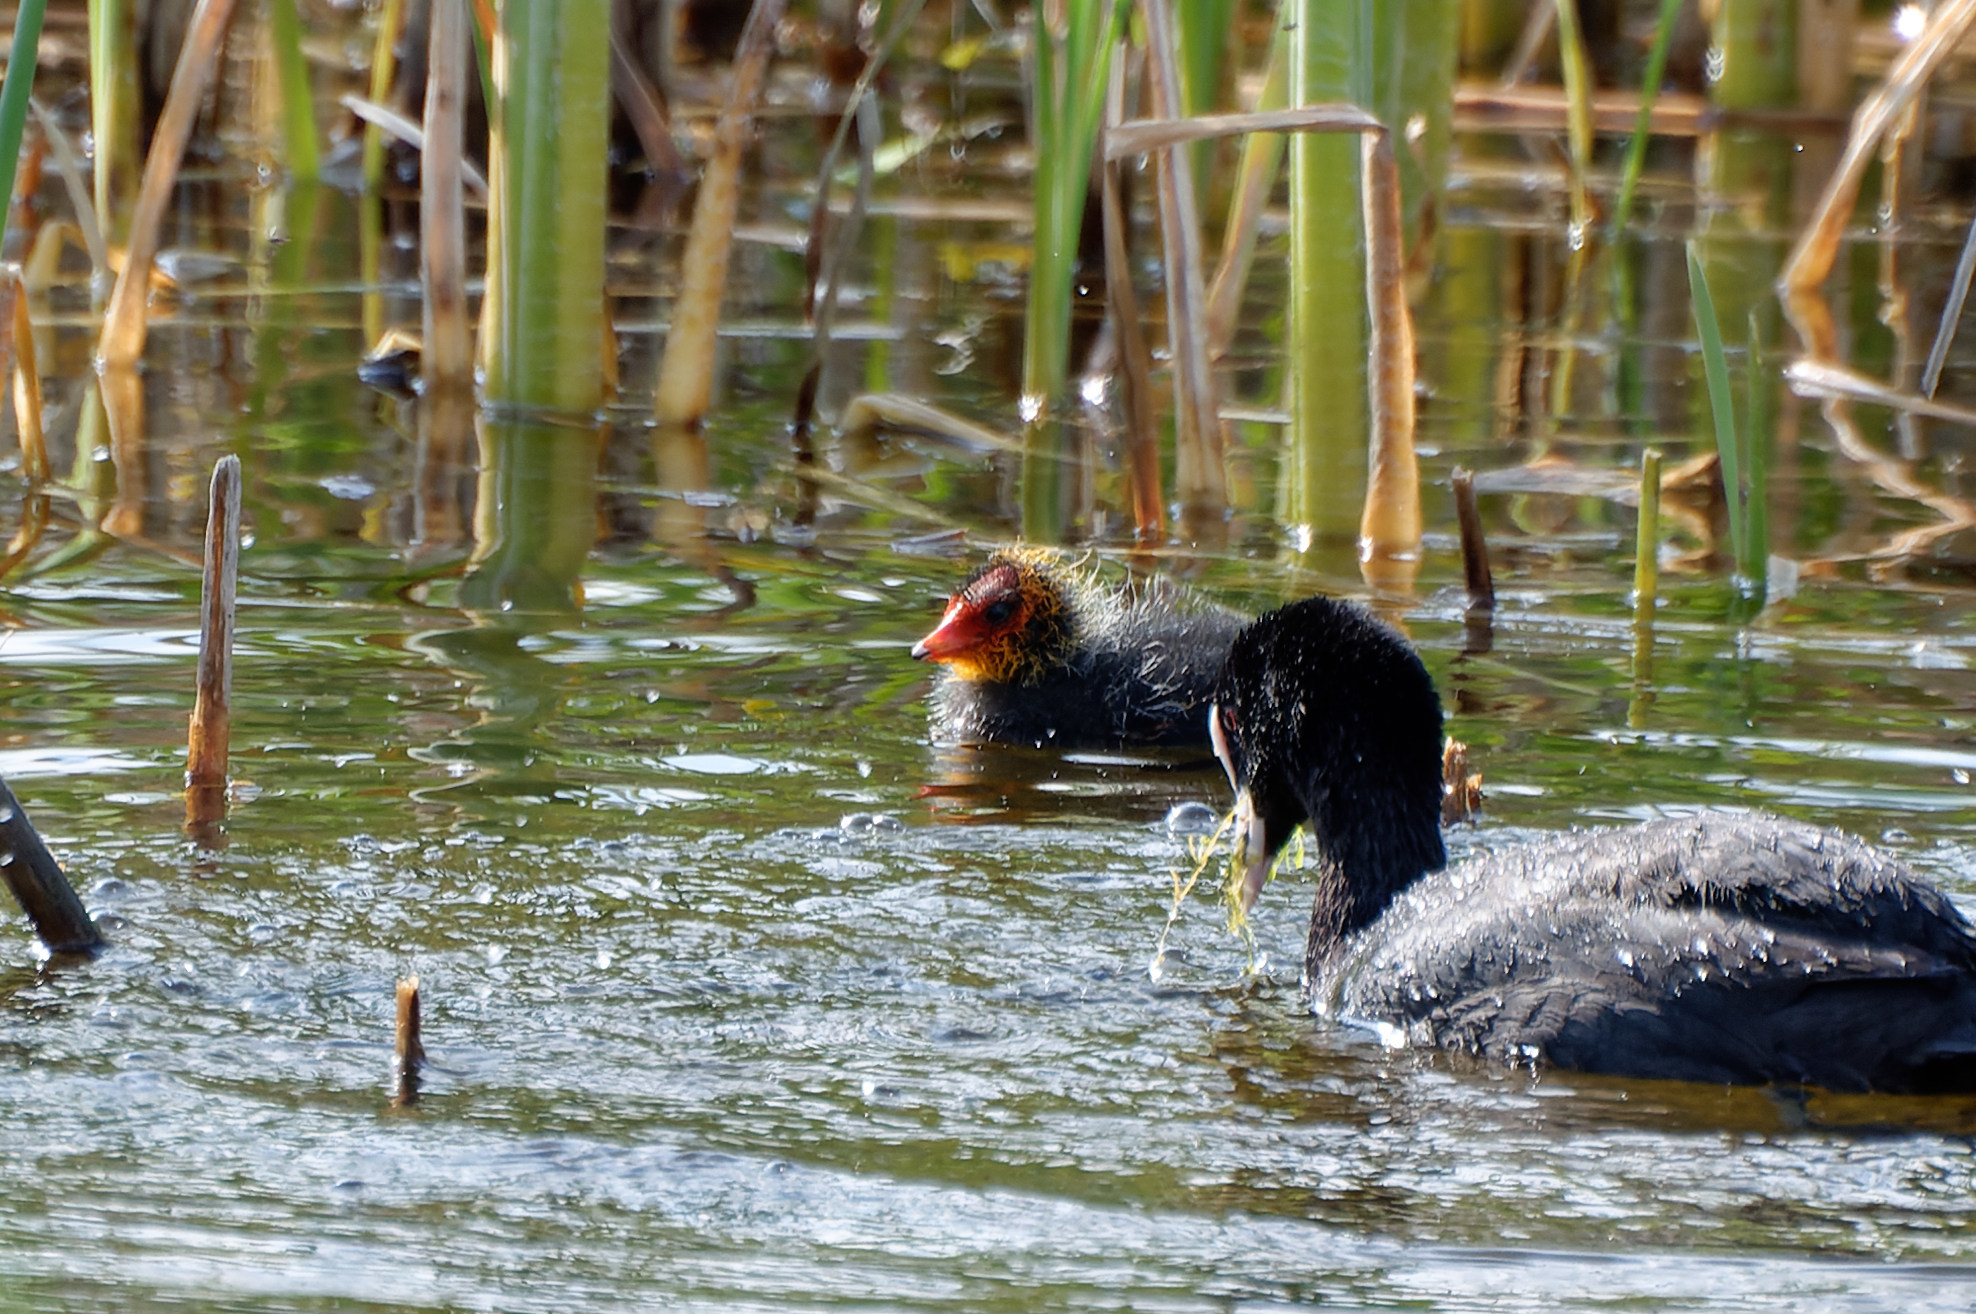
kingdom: Animalia
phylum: Chordata
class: Aves
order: Gruiformes
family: Rallidae
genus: Fulica
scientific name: Fulica atra
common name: Eurasian coot
